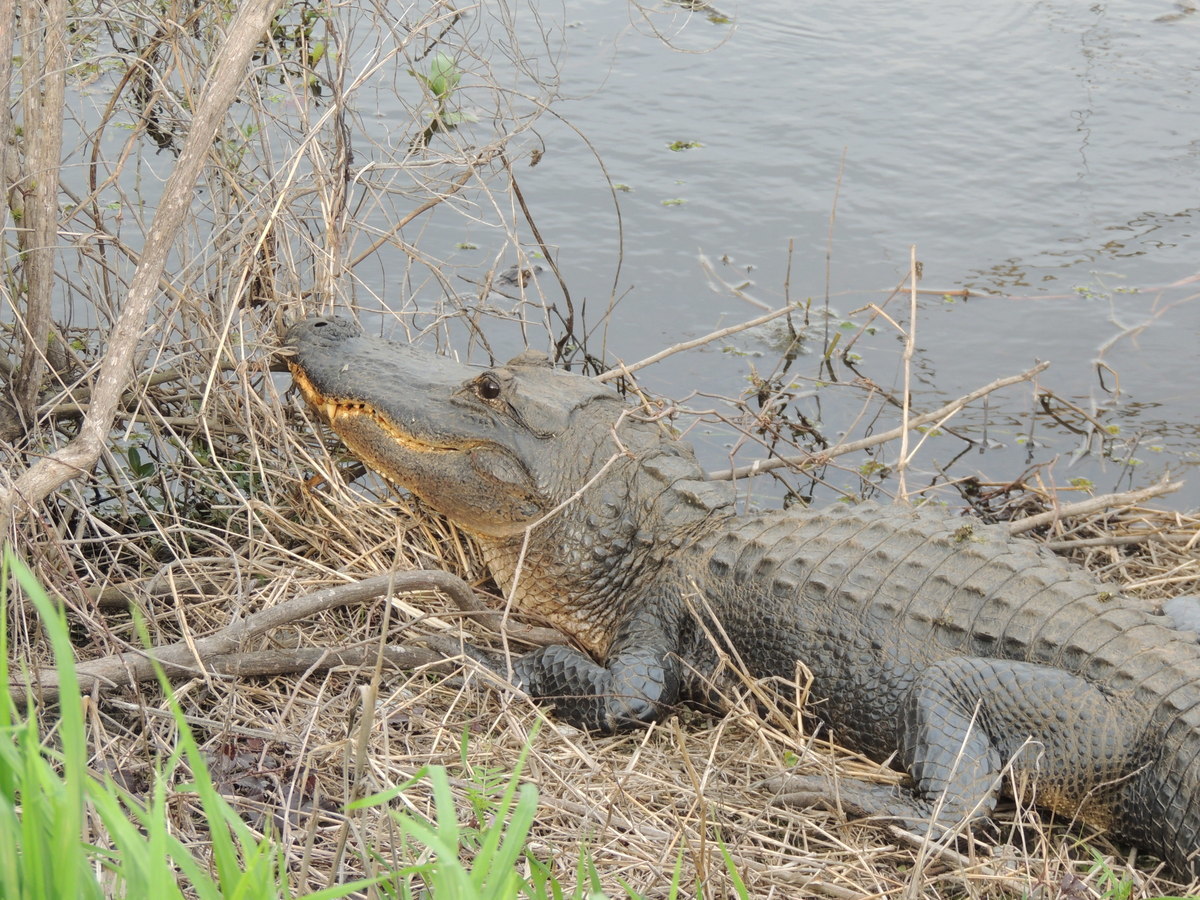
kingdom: Animalia
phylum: Chordata
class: Crocodylia
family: Alligatoridae
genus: Alligator
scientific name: Alligator mississippiensis
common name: American alligator
